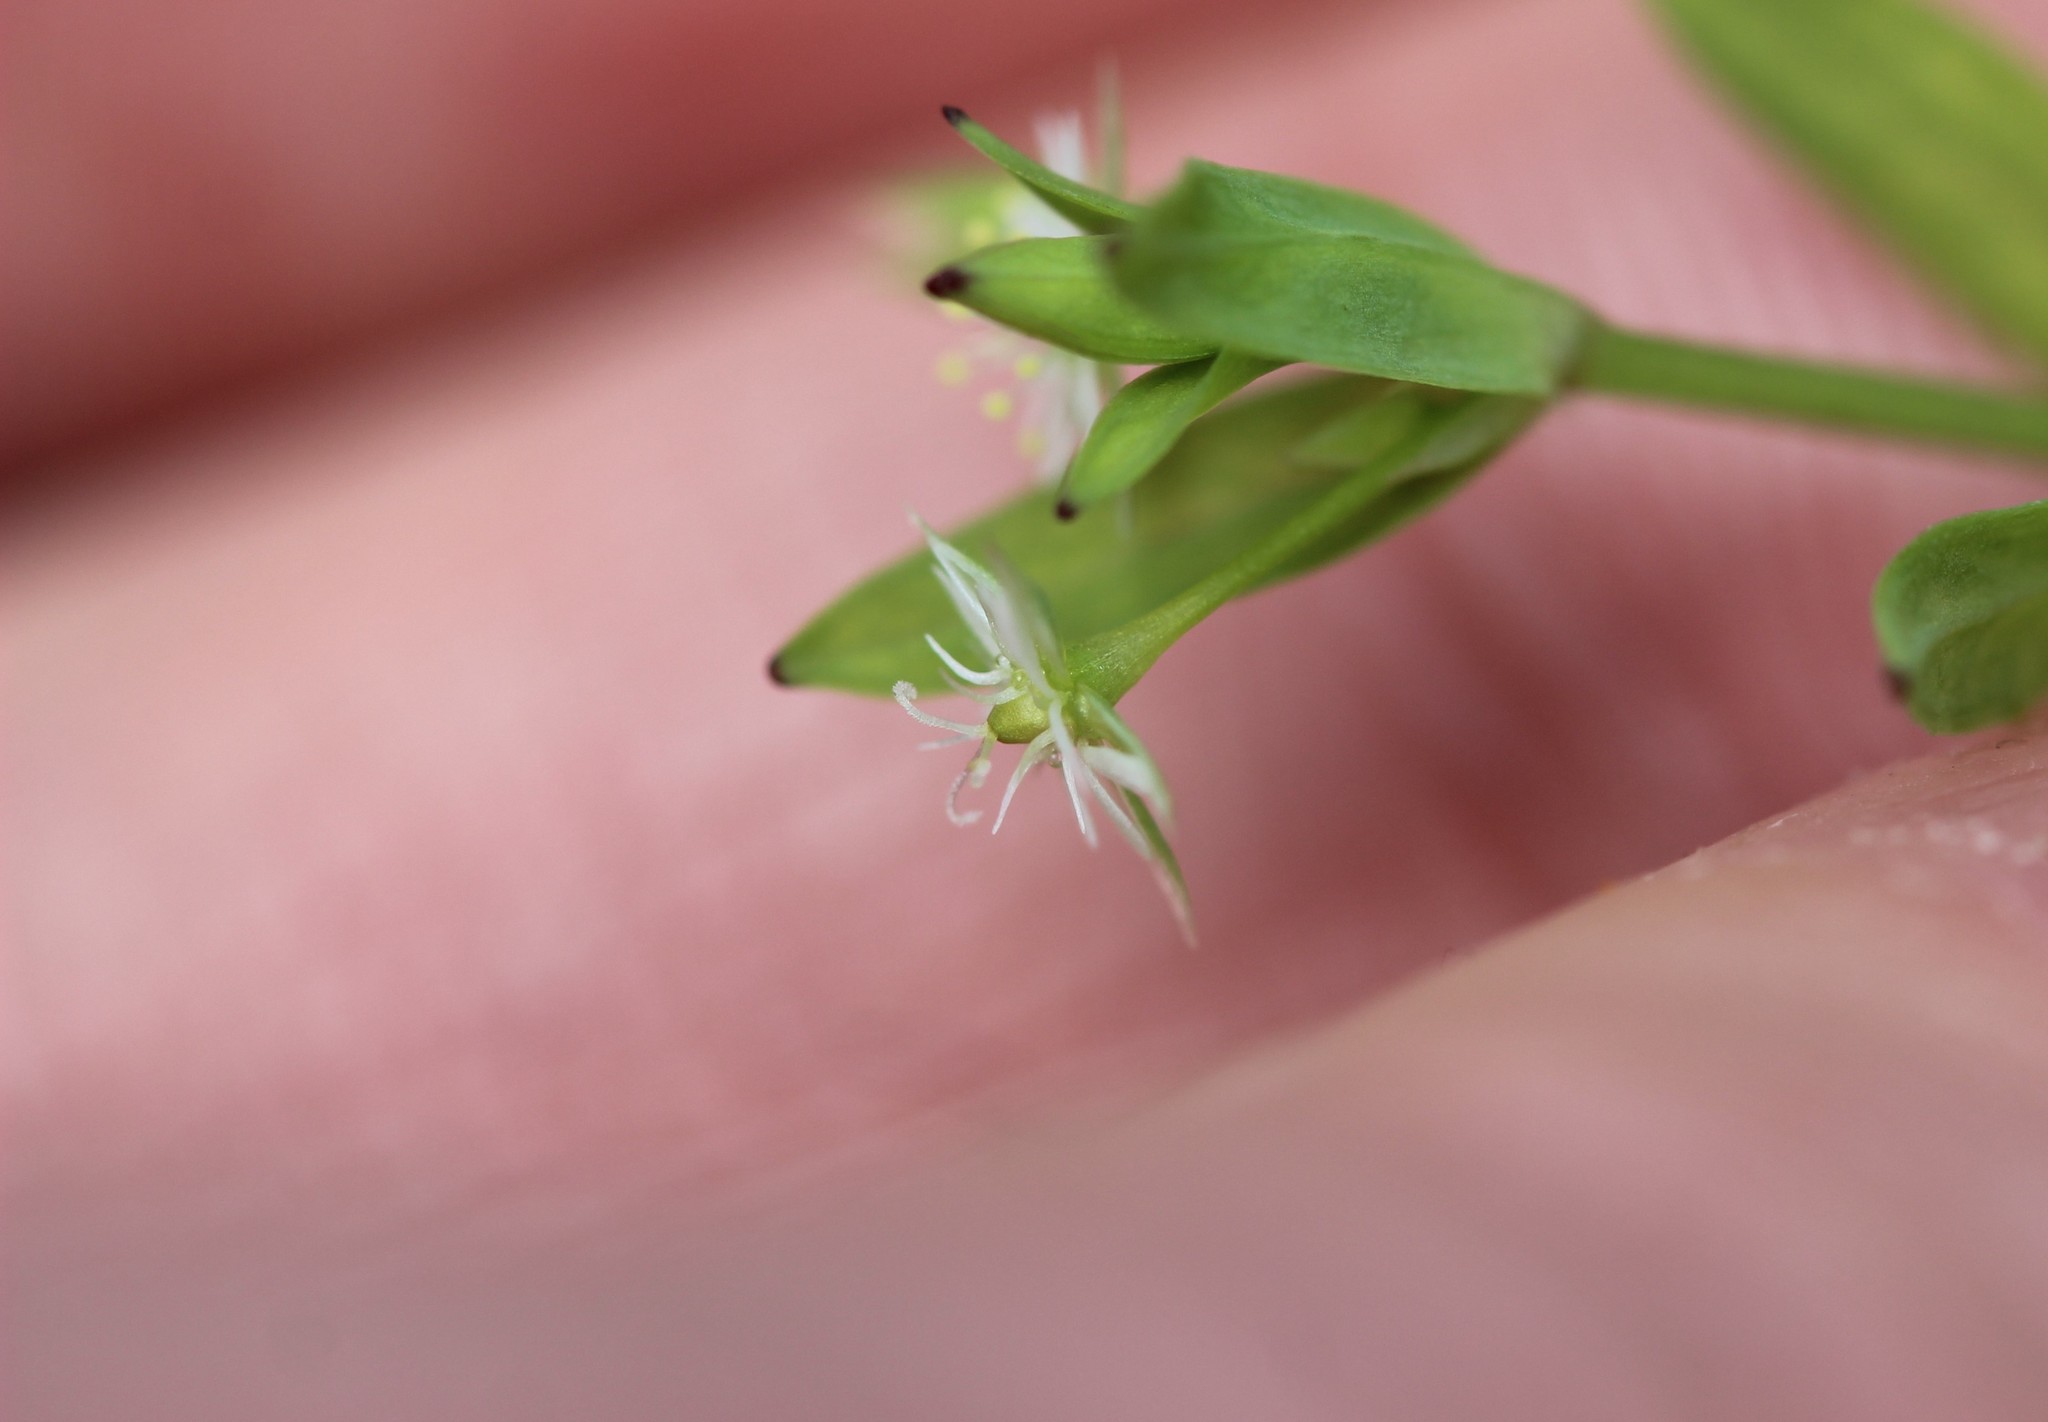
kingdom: Plantae
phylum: Tracheophyta
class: Magnoliopsida
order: Caryophyllales
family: Caryophyllaceae
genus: Stellaria
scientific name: Stellaria alsine
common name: Bog stitchwort
